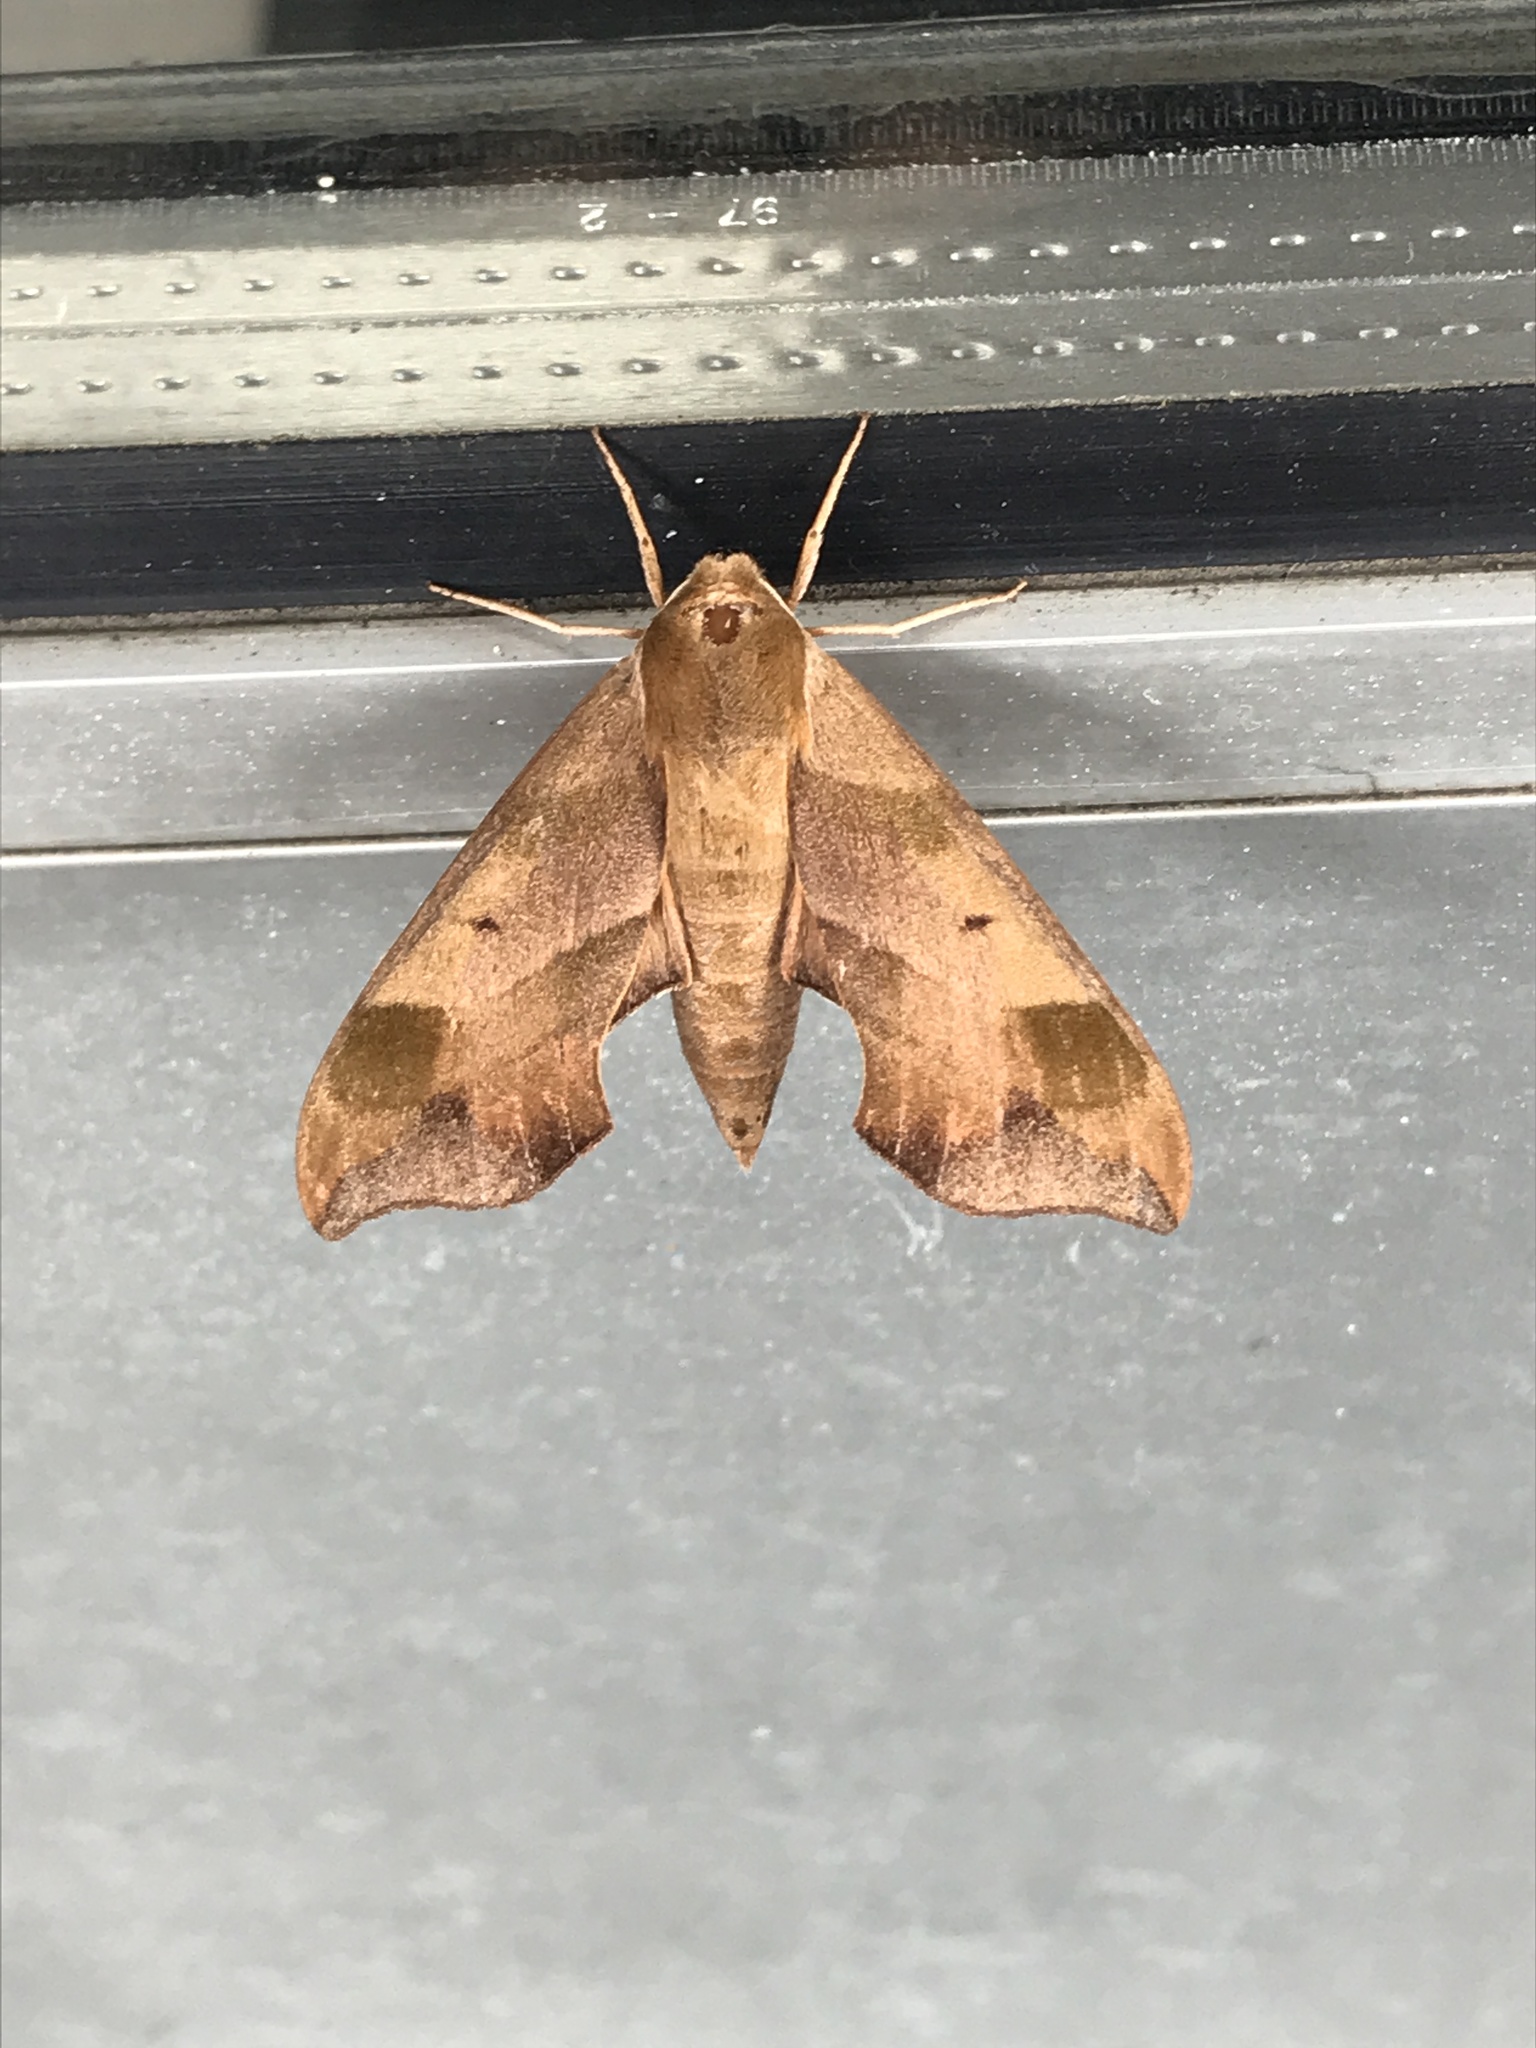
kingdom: Animalia
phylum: Arthropoda
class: Insecta
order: Lepidoptera
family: Sphingidae
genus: Darapsa
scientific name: Darapsa myron
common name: Hog sphinx
